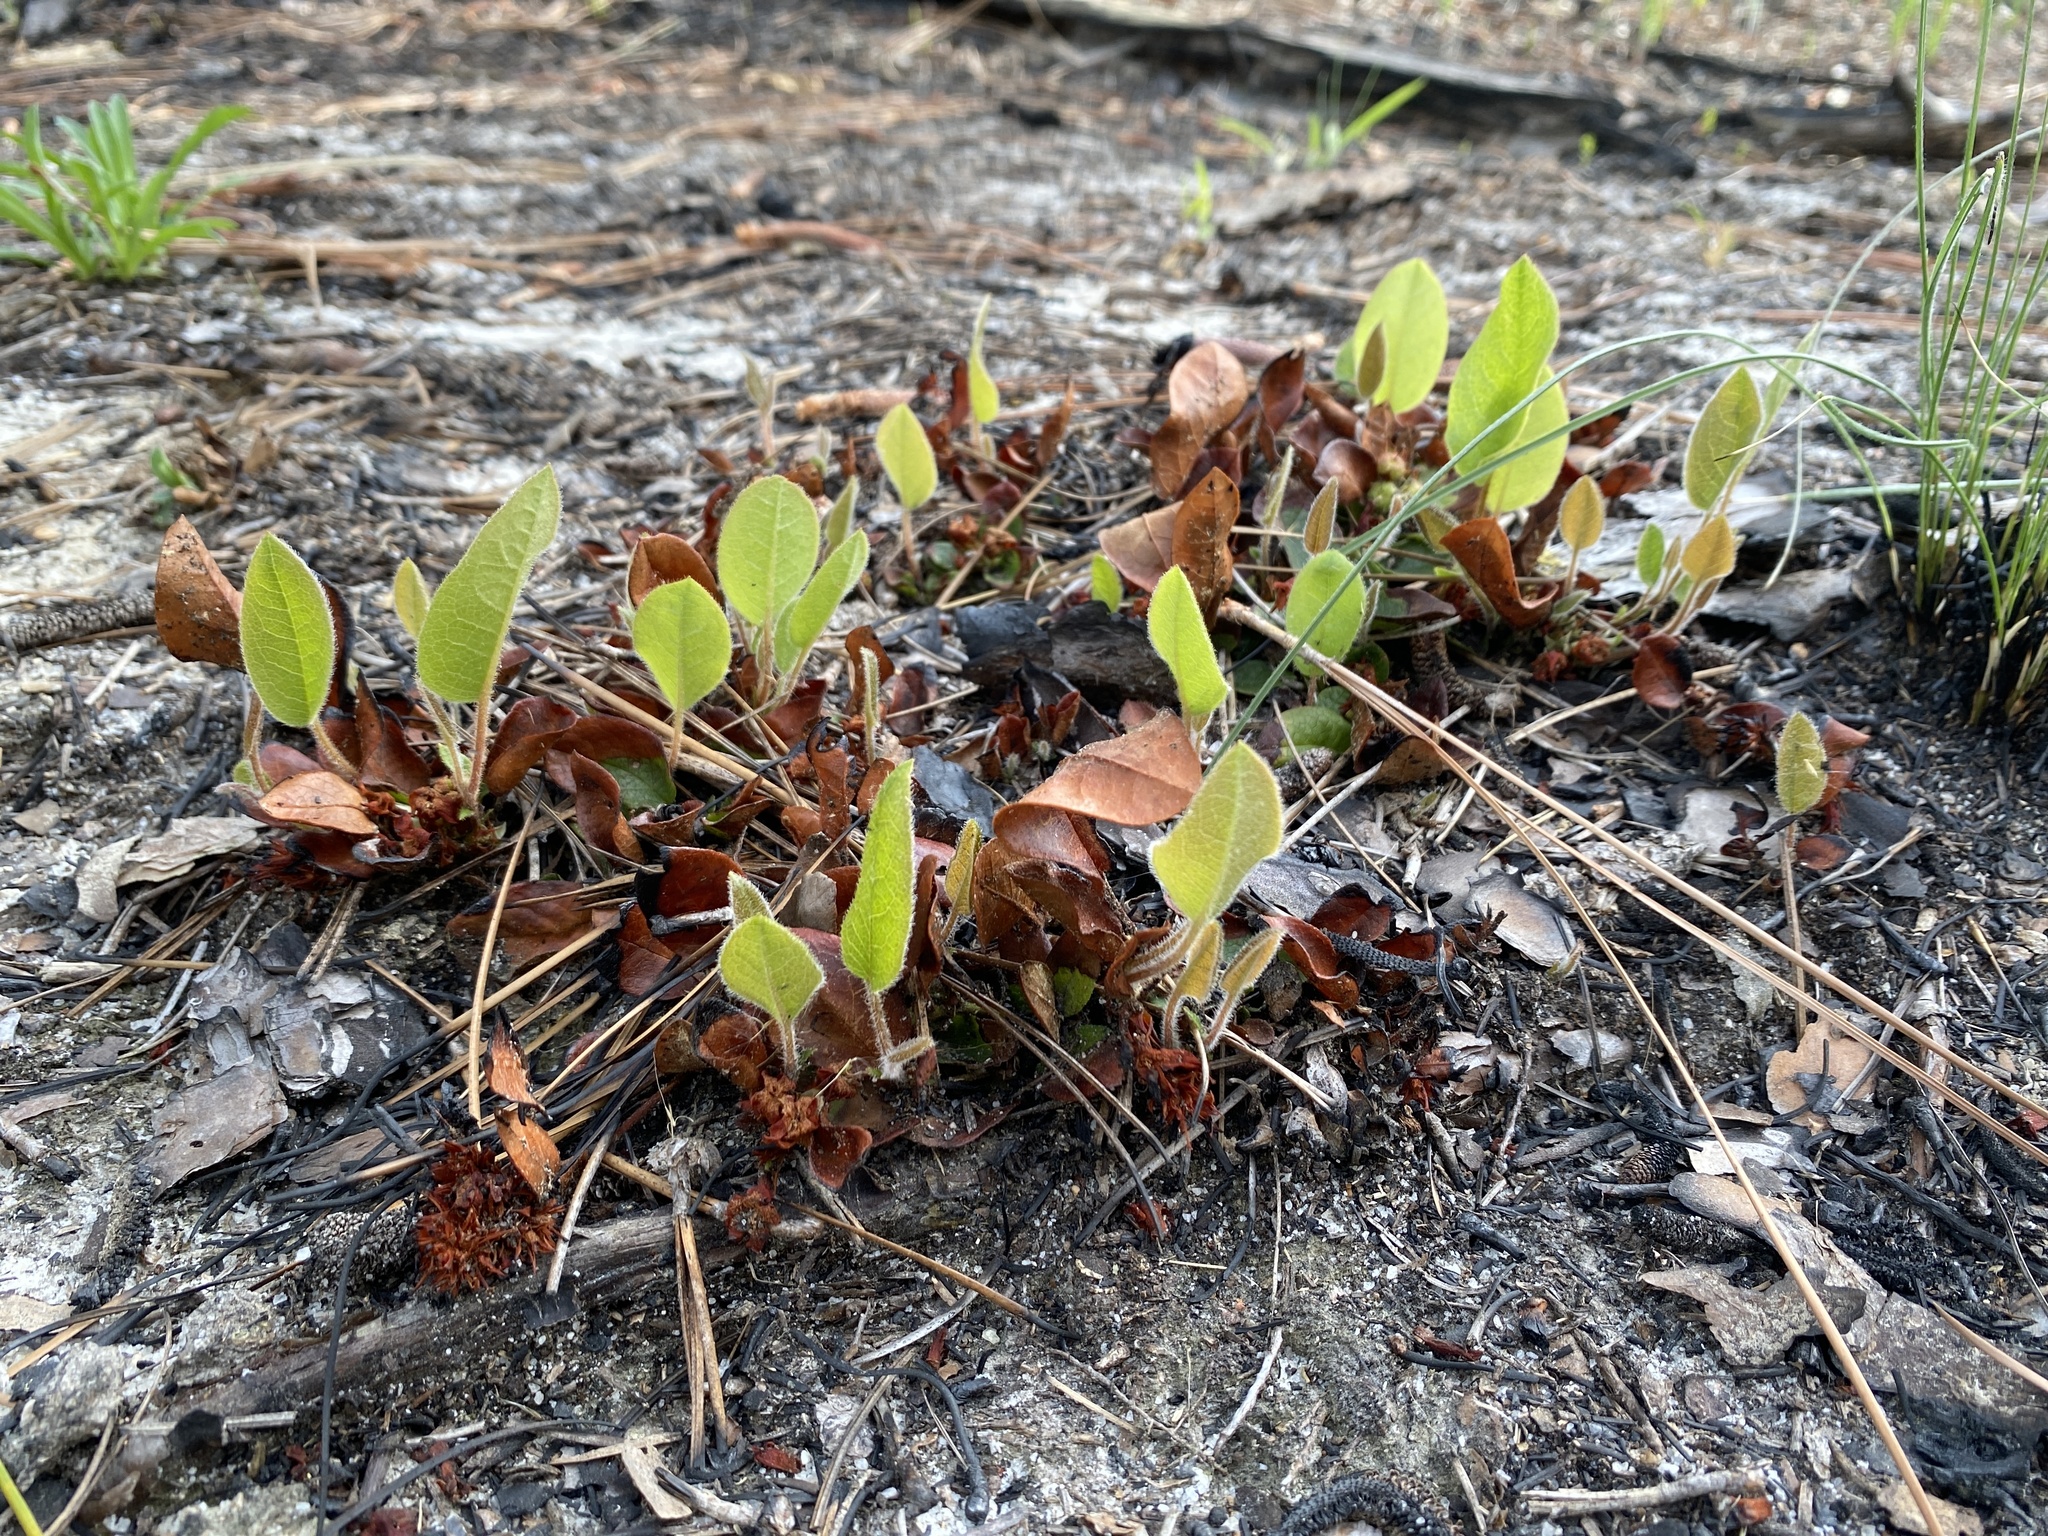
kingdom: Plantae
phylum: Tracheophyta
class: Magnoliopsida
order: Ericales
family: Ericaceae
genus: Epigaea
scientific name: Epigaea repens
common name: Gravelroot
